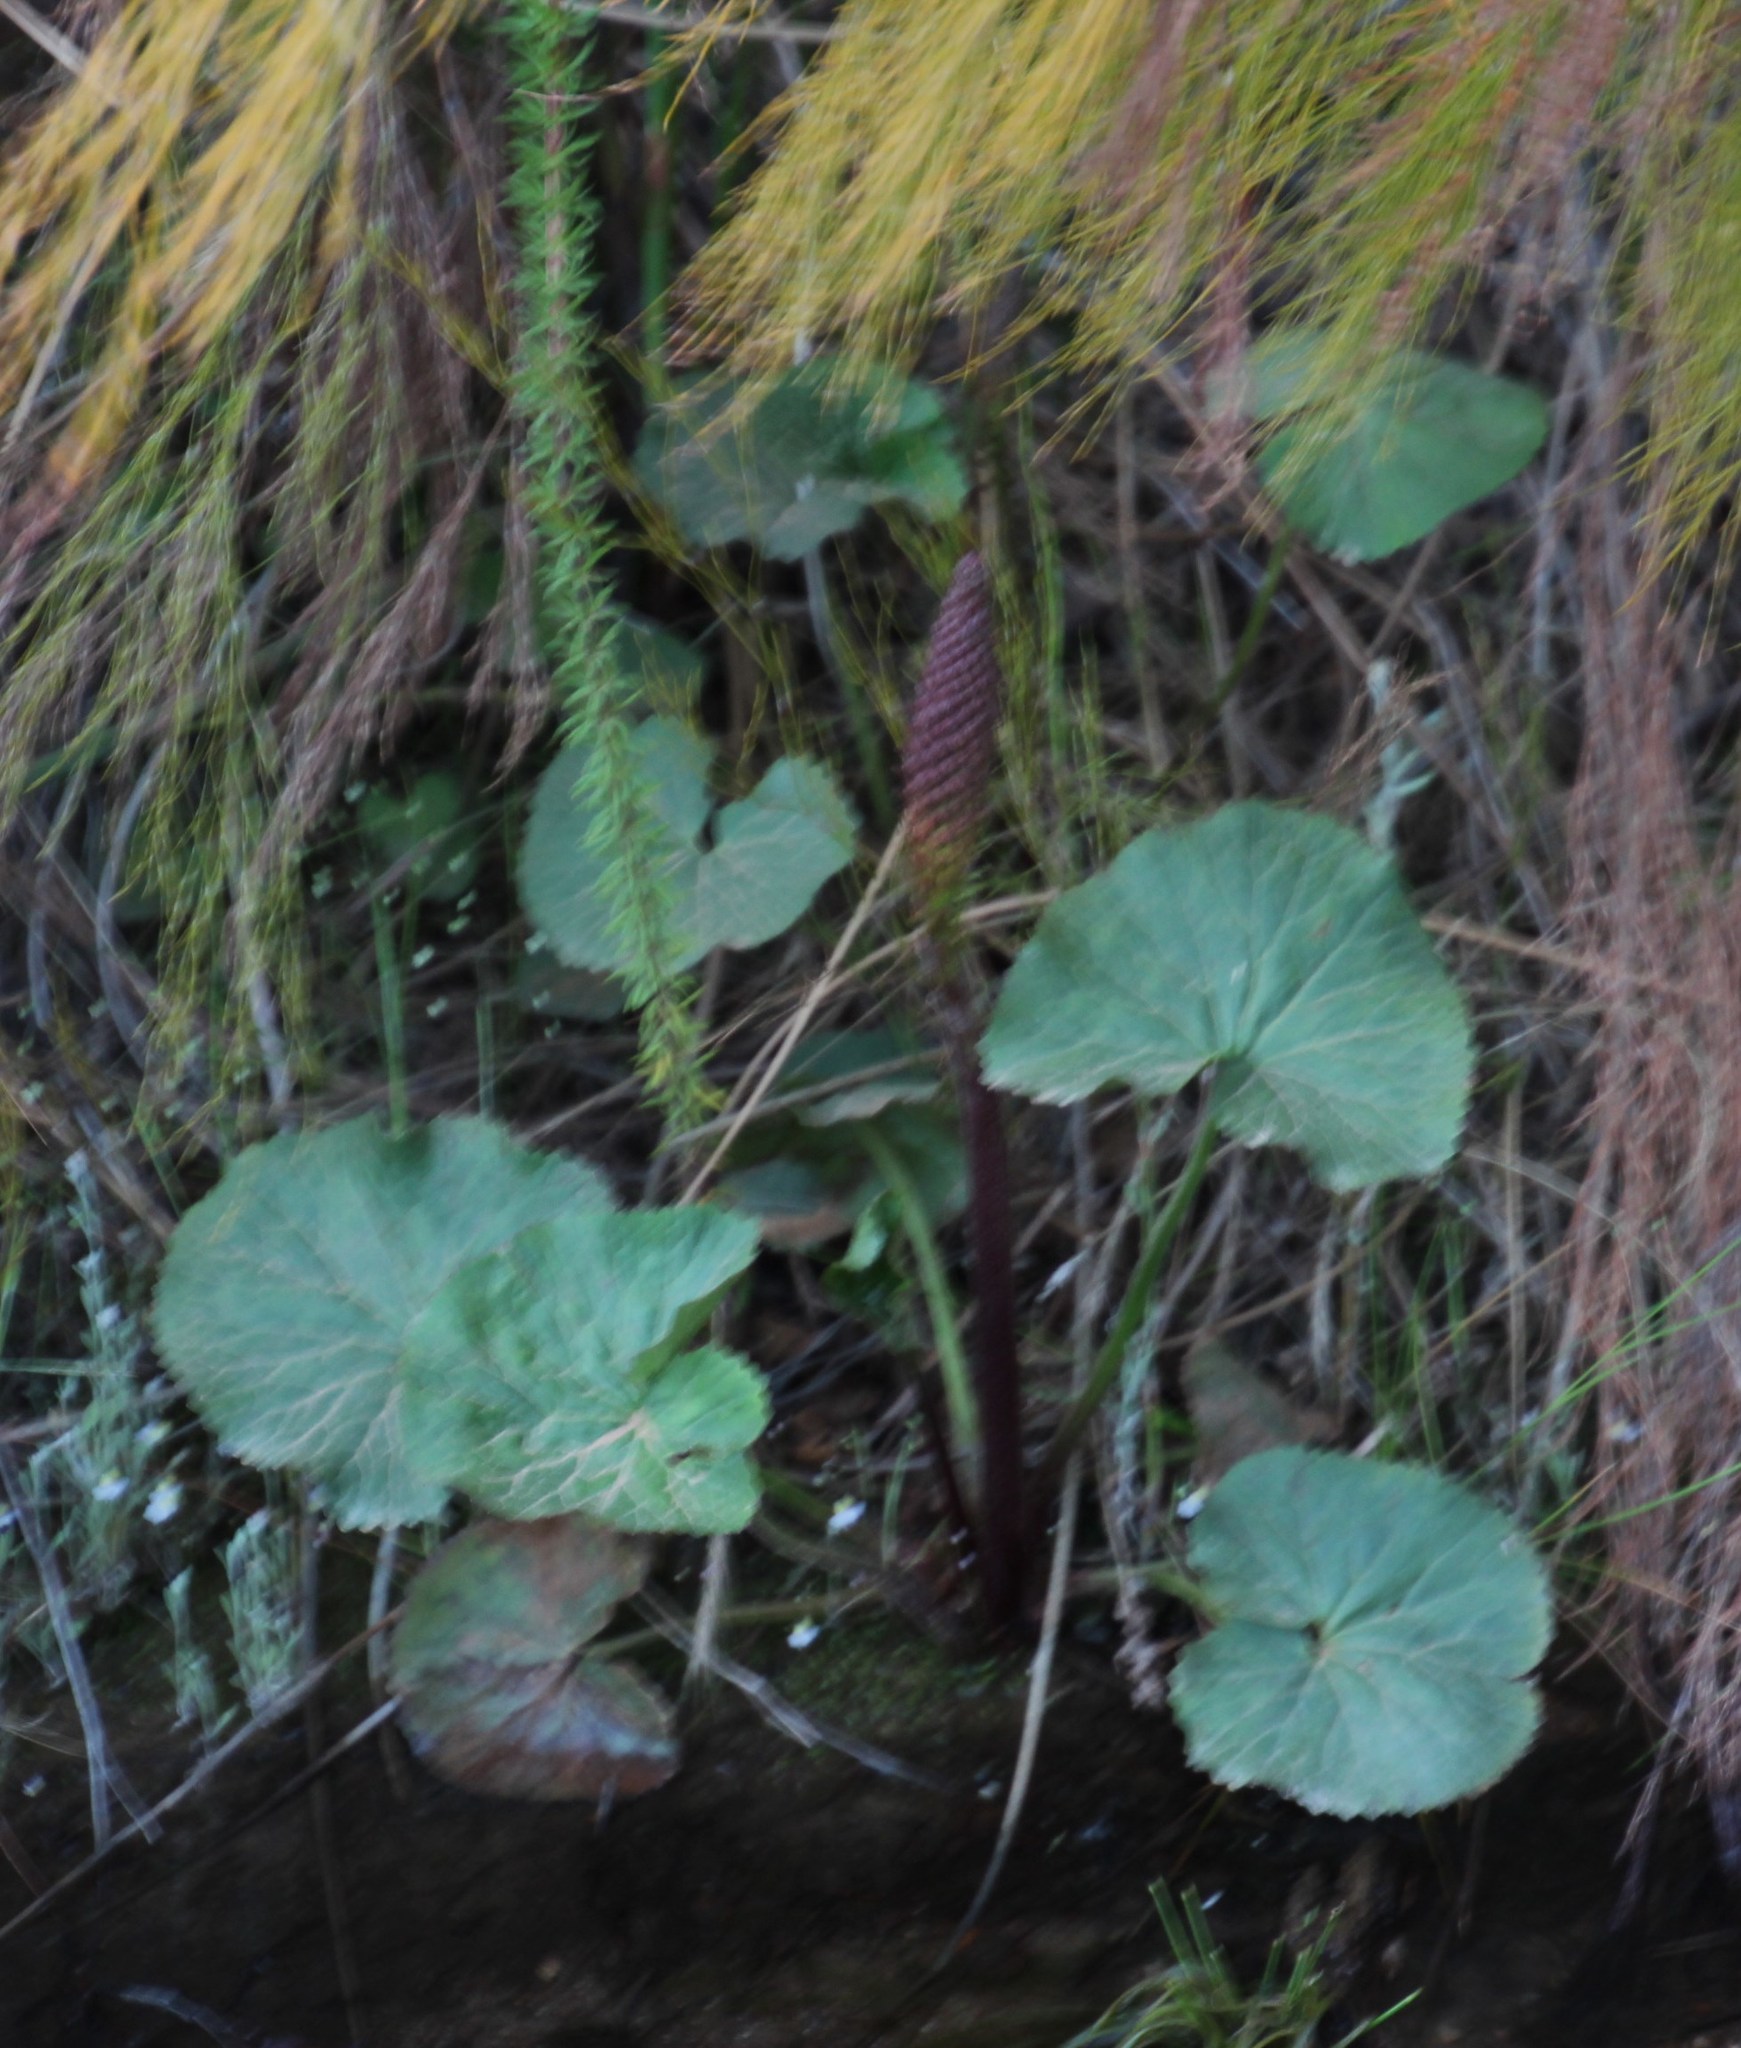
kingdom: Plantae
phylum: Tracheophyta
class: Magnoliopsida
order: Gunnerales
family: Gunneraceae
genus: Gunnera
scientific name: Gunnera perpensa
